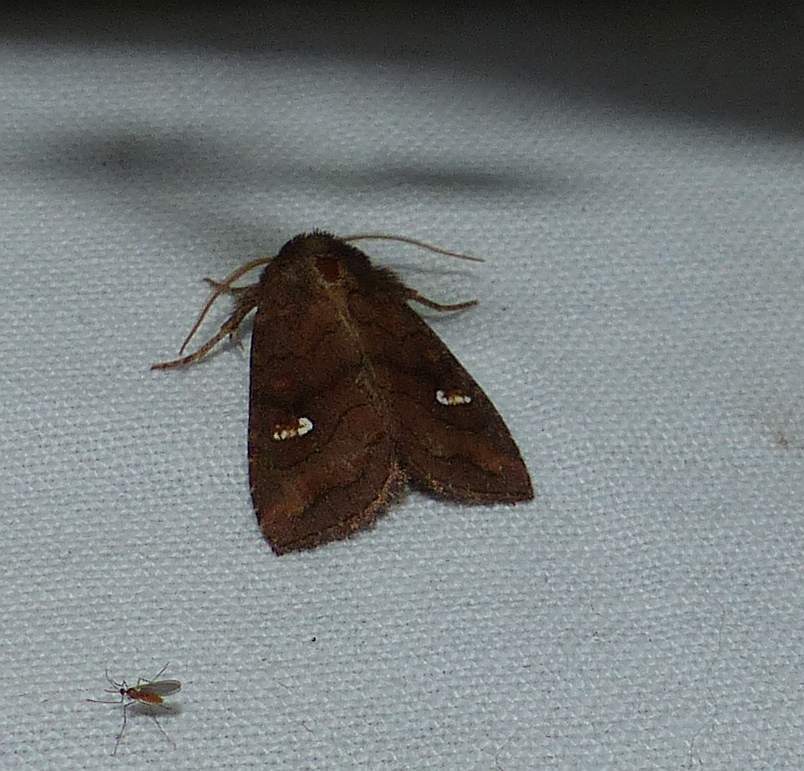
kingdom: Animalia
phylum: Arthropoda
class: Insecta
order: Lepidoptera
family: Noctuidae
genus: Tricholita
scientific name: Tricholita signata
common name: Signate quaker
